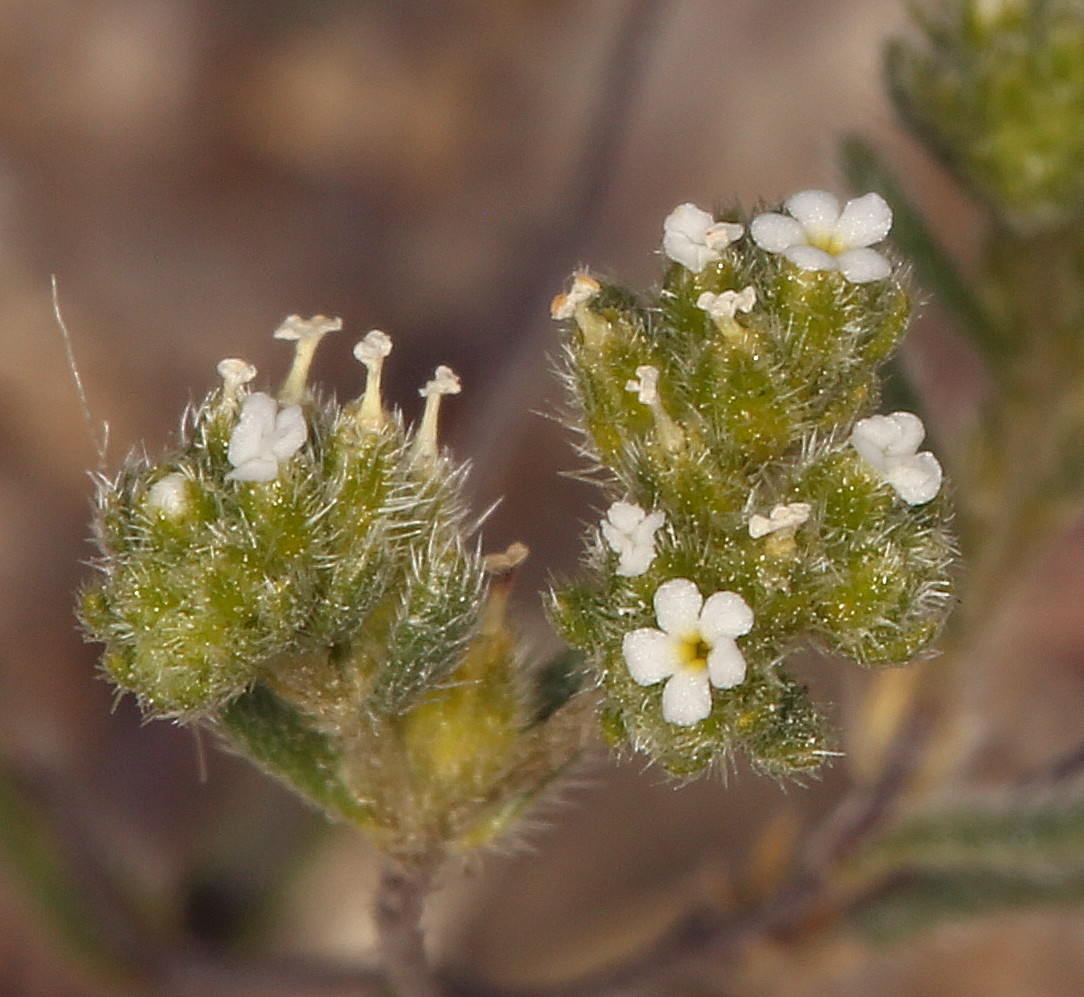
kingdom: Plantae
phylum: Tracheophyta
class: Magnoliopsida
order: Boraginales
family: Boraginaceae
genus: Eremocarya
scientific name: Eremocarya micrantha
